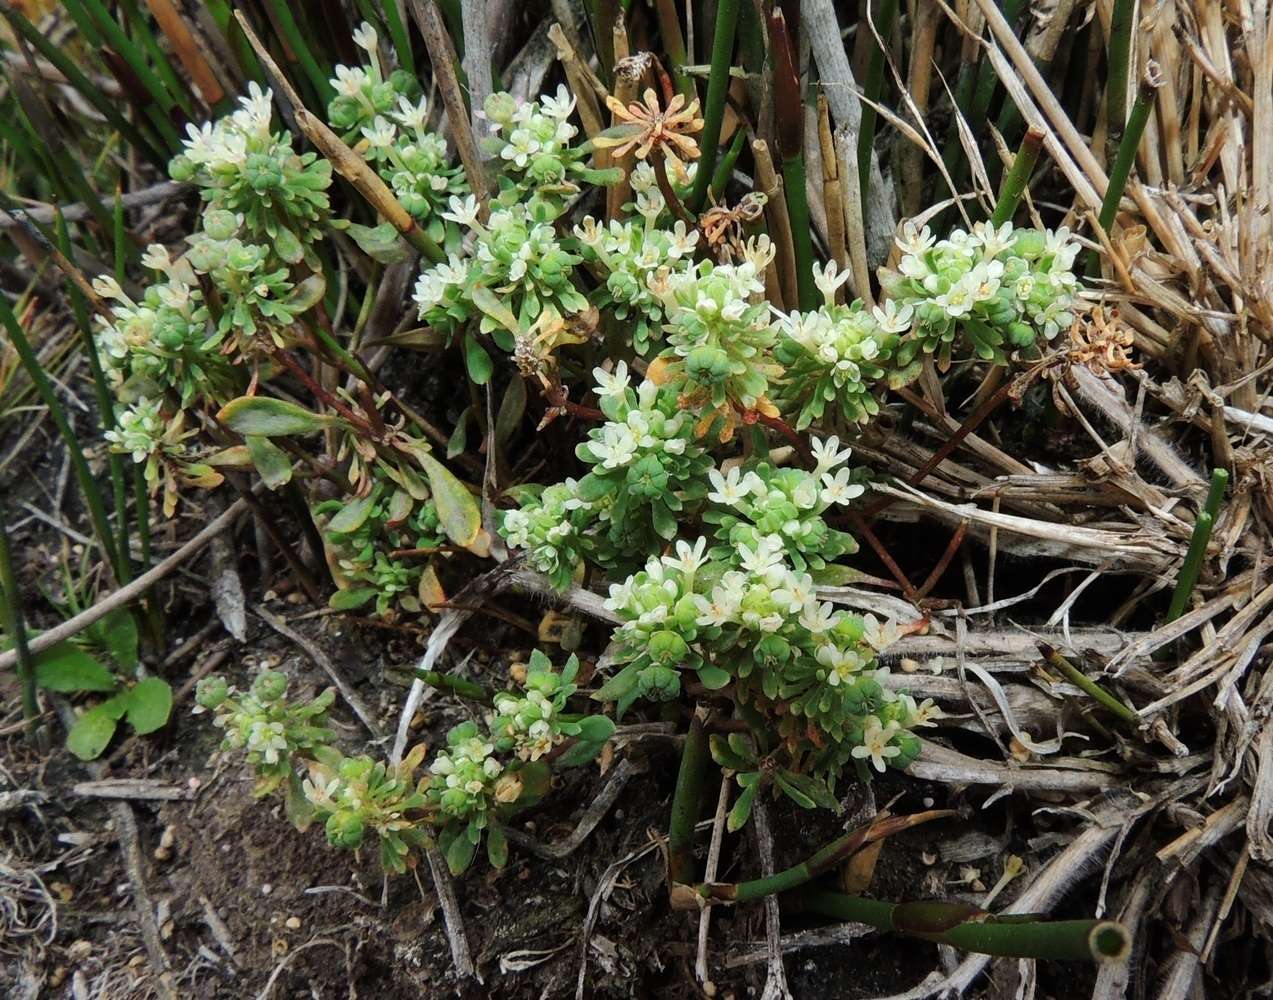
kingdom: Plantae
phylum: Tracheophyta
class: Magnoliopsida
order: Malpighiales
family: Phyllanthaceae
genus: Poranthera
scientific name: Poranthera microphylla
